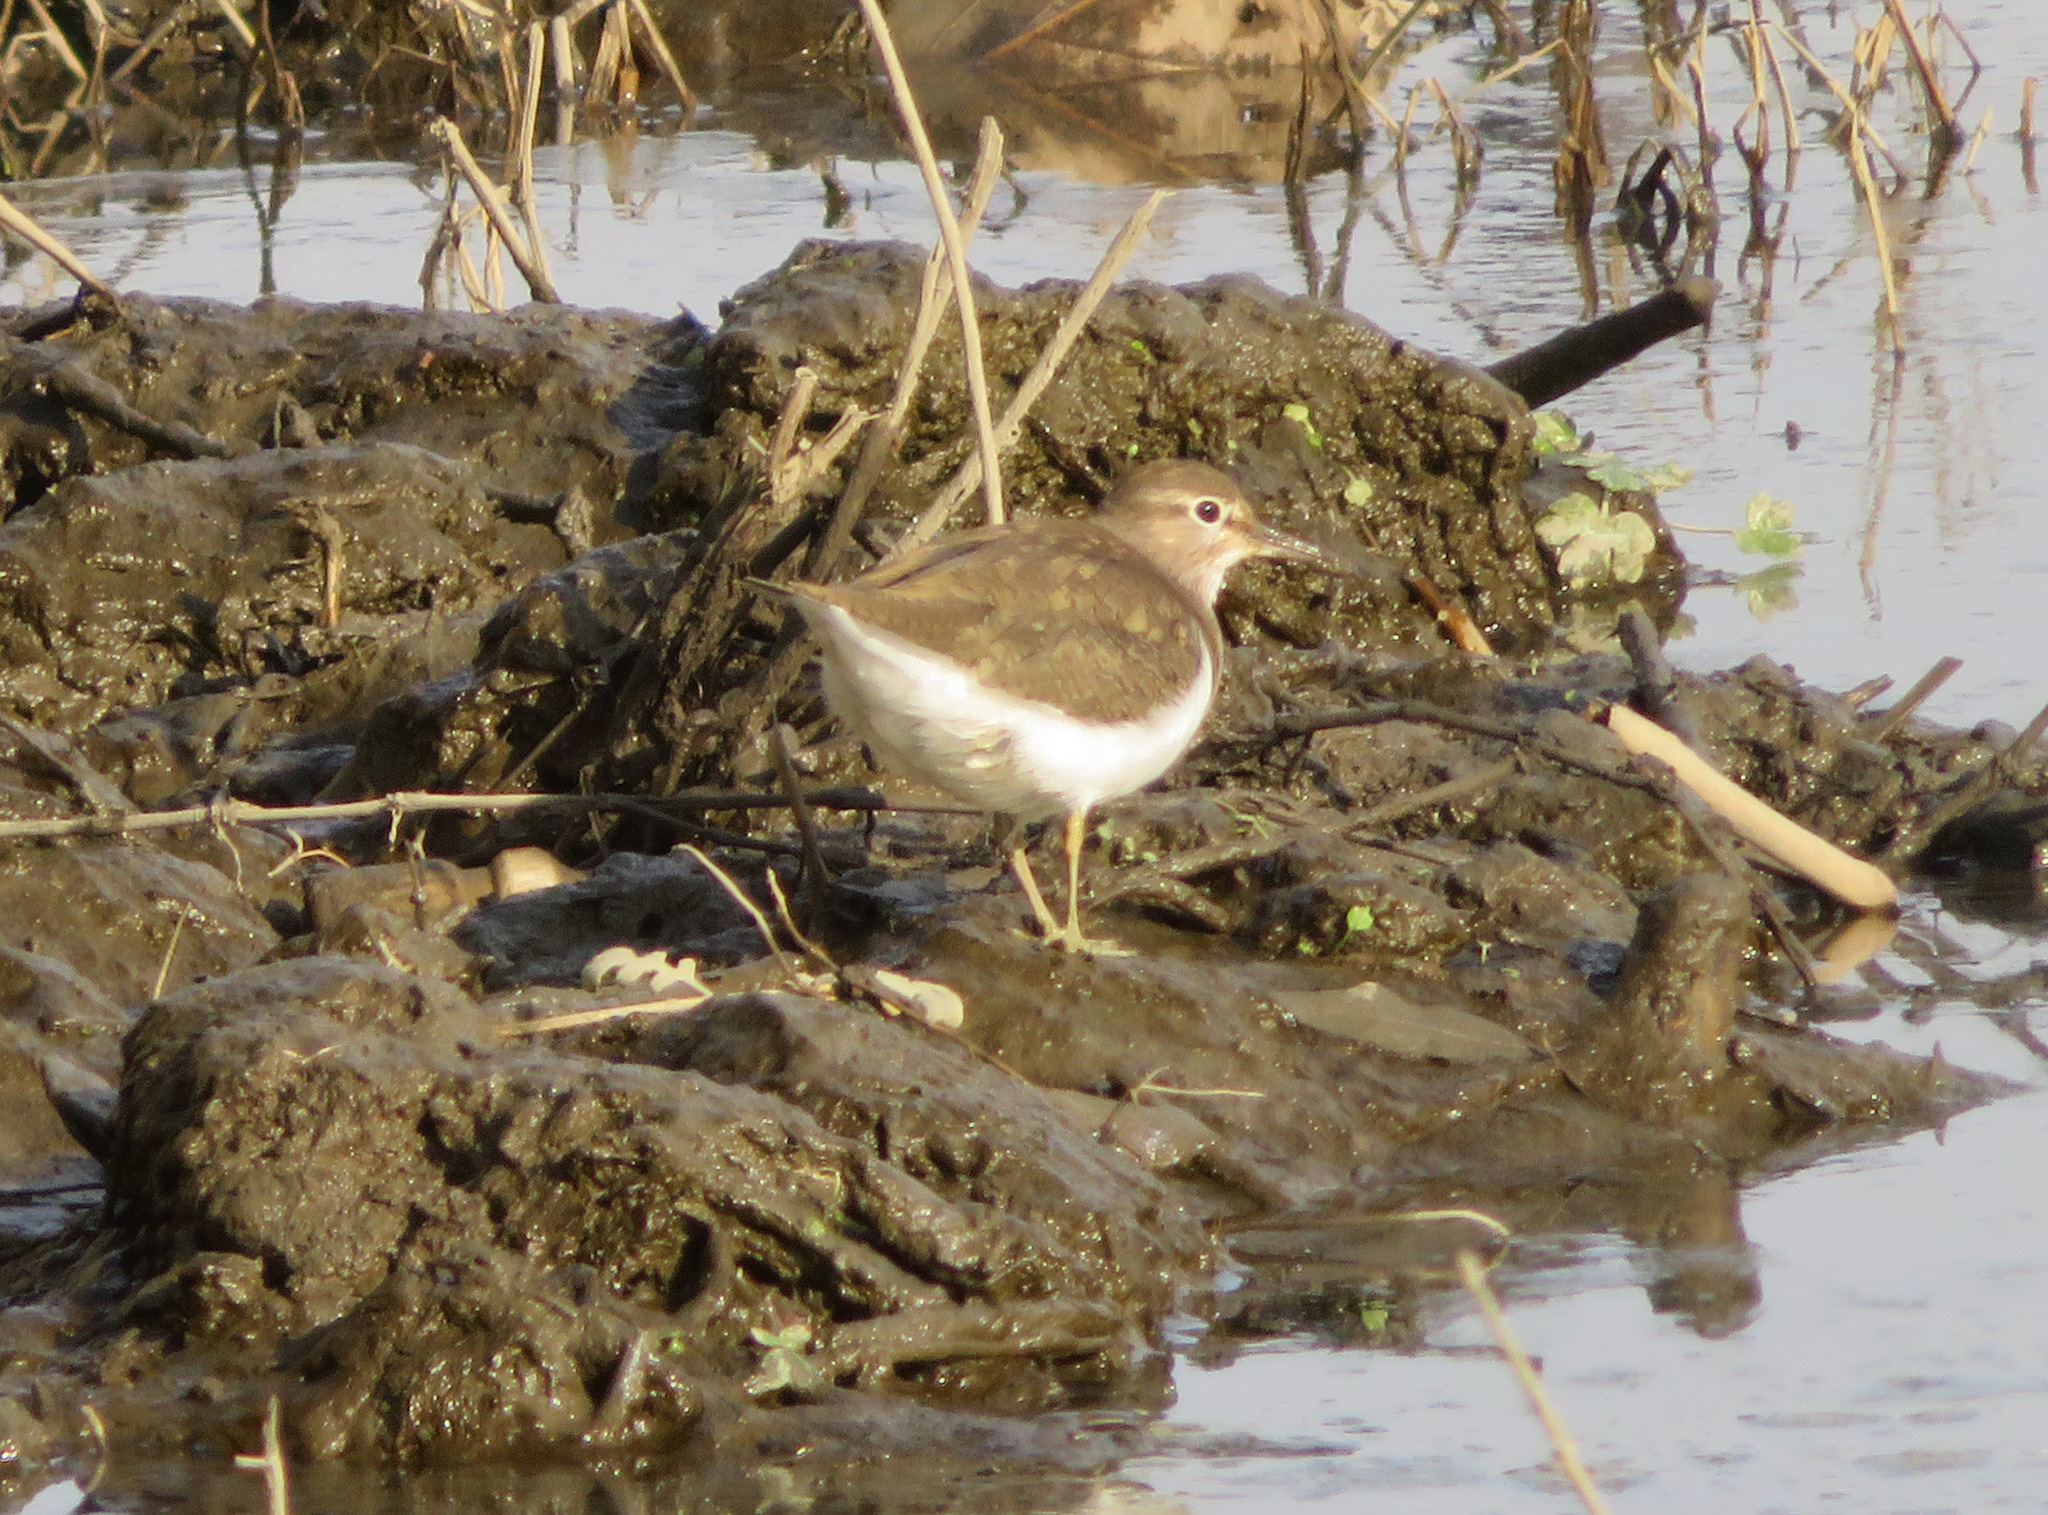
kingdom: Animalia
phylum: Chordata
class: Aves
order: Charadriiformes
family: Scolopacidae
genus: Actitis
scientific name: Actitis hypoleucos
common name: Common sandpiper
